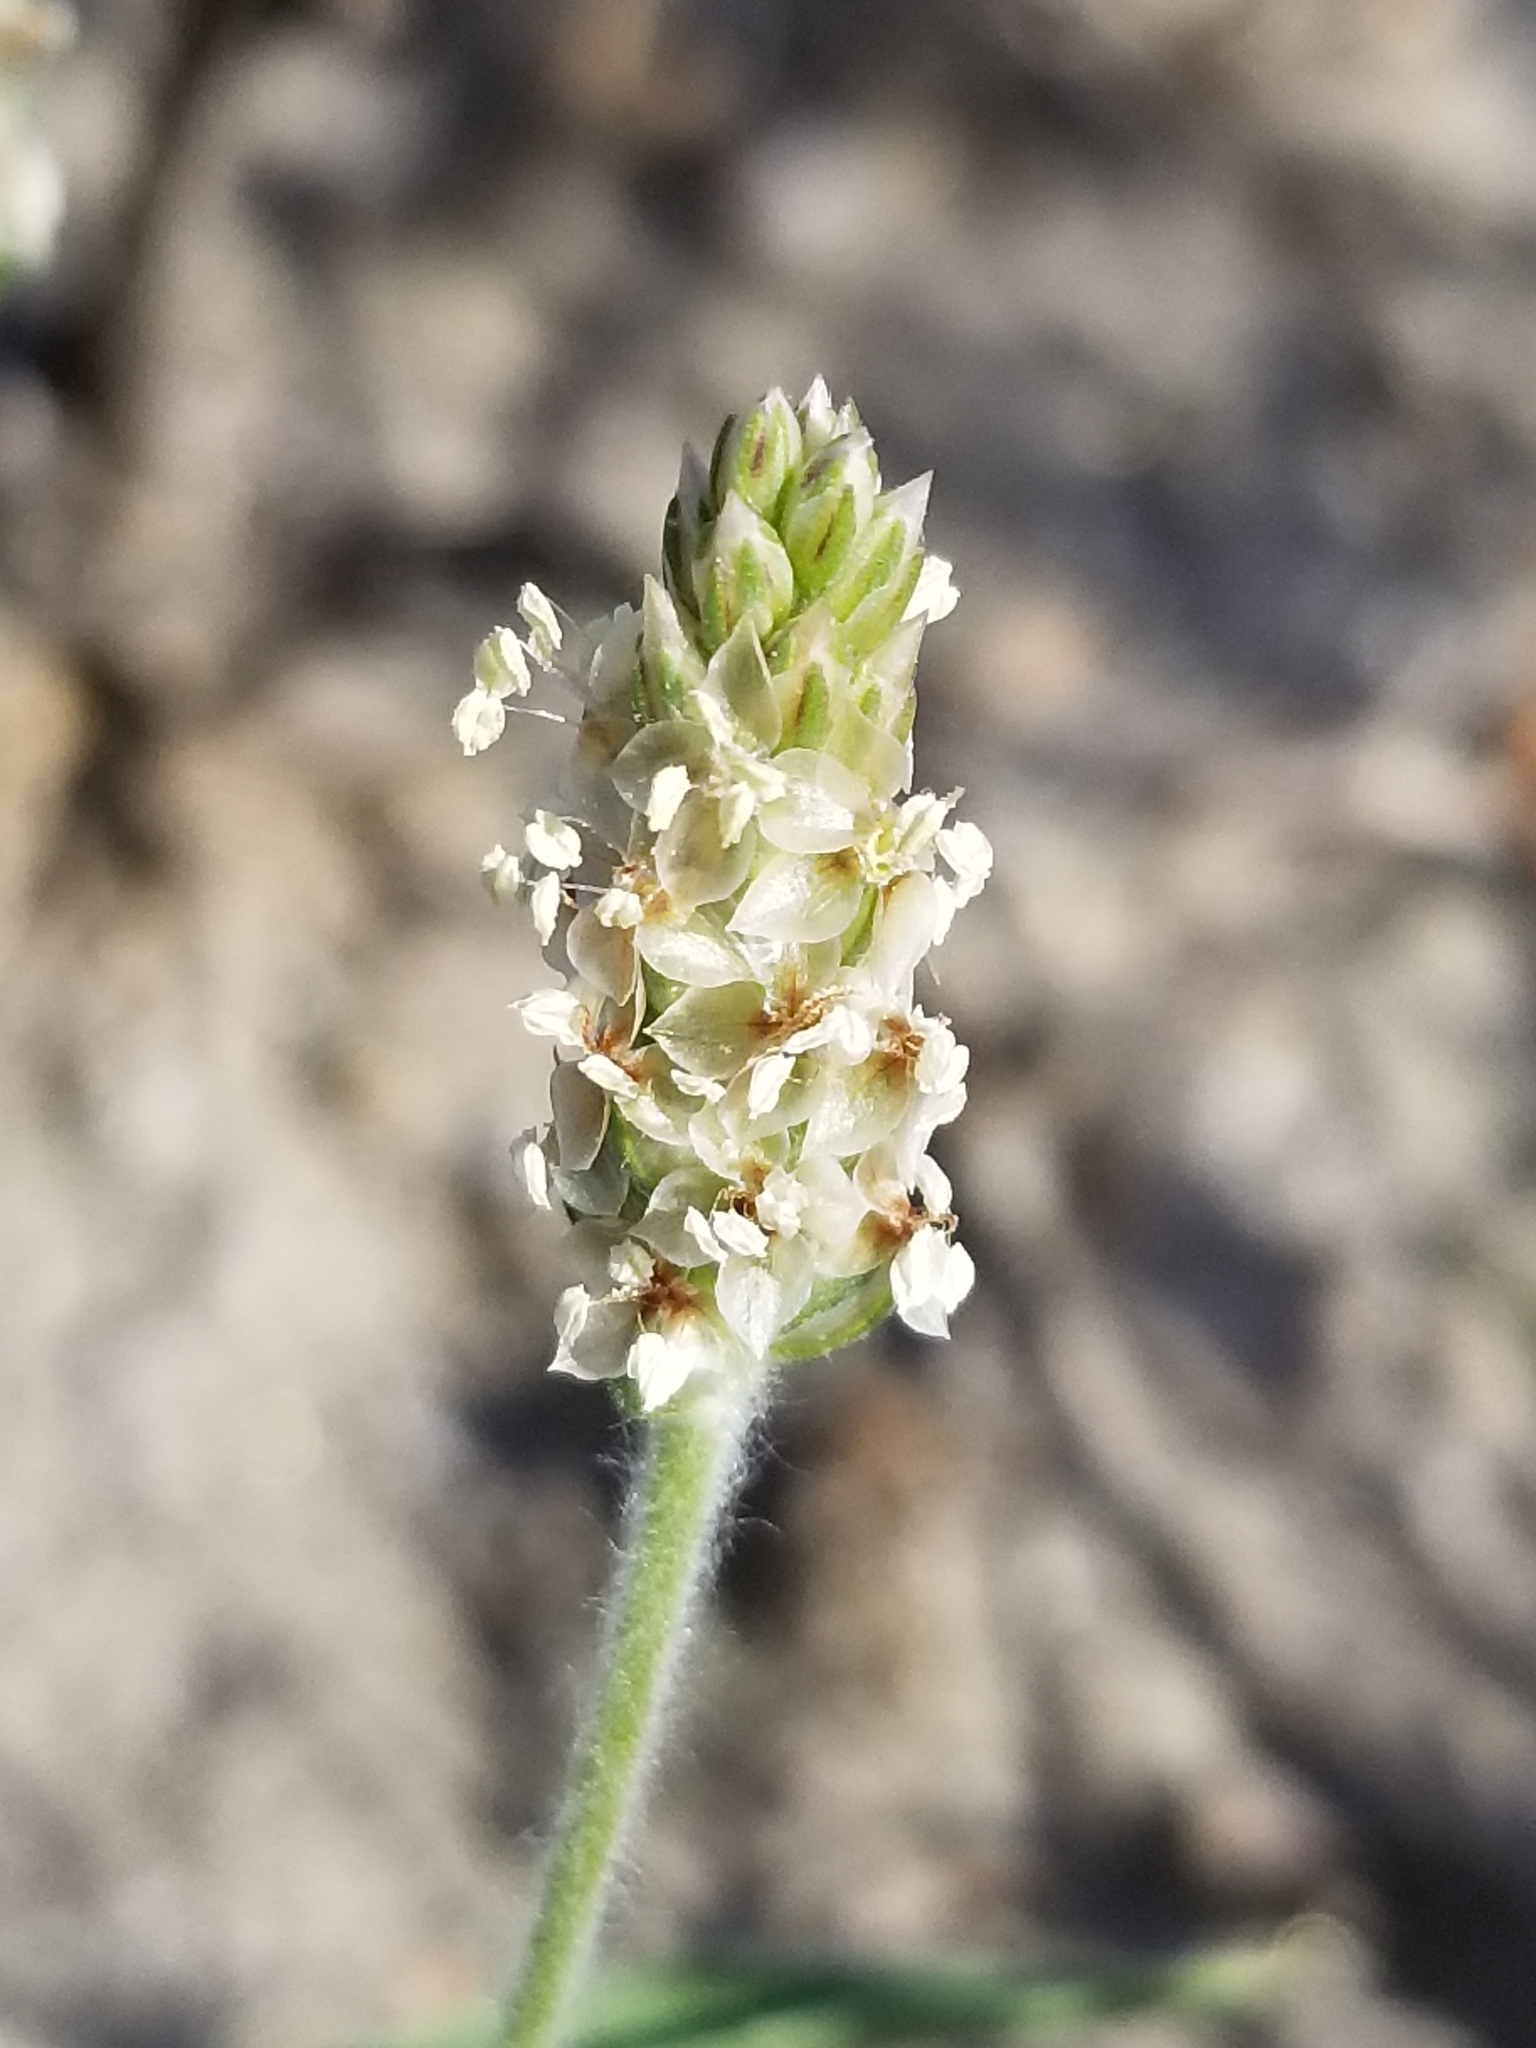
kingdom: Plantae
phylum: Tracheophyta
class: Magnoliopsida
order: Lamiales
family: Plantaginaceae
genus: Plantago
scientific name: Plantago ovata
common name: Blond plantain
